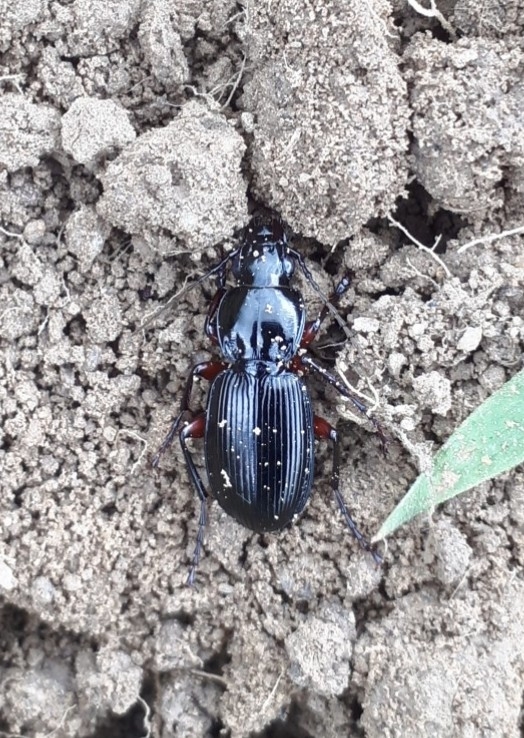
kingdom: Animalia
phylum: Arthropoda
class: Insecta
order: Coleoptera
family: Carabidae
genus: Pterostichus
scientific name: Pterostichus madidus
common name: Black clock
